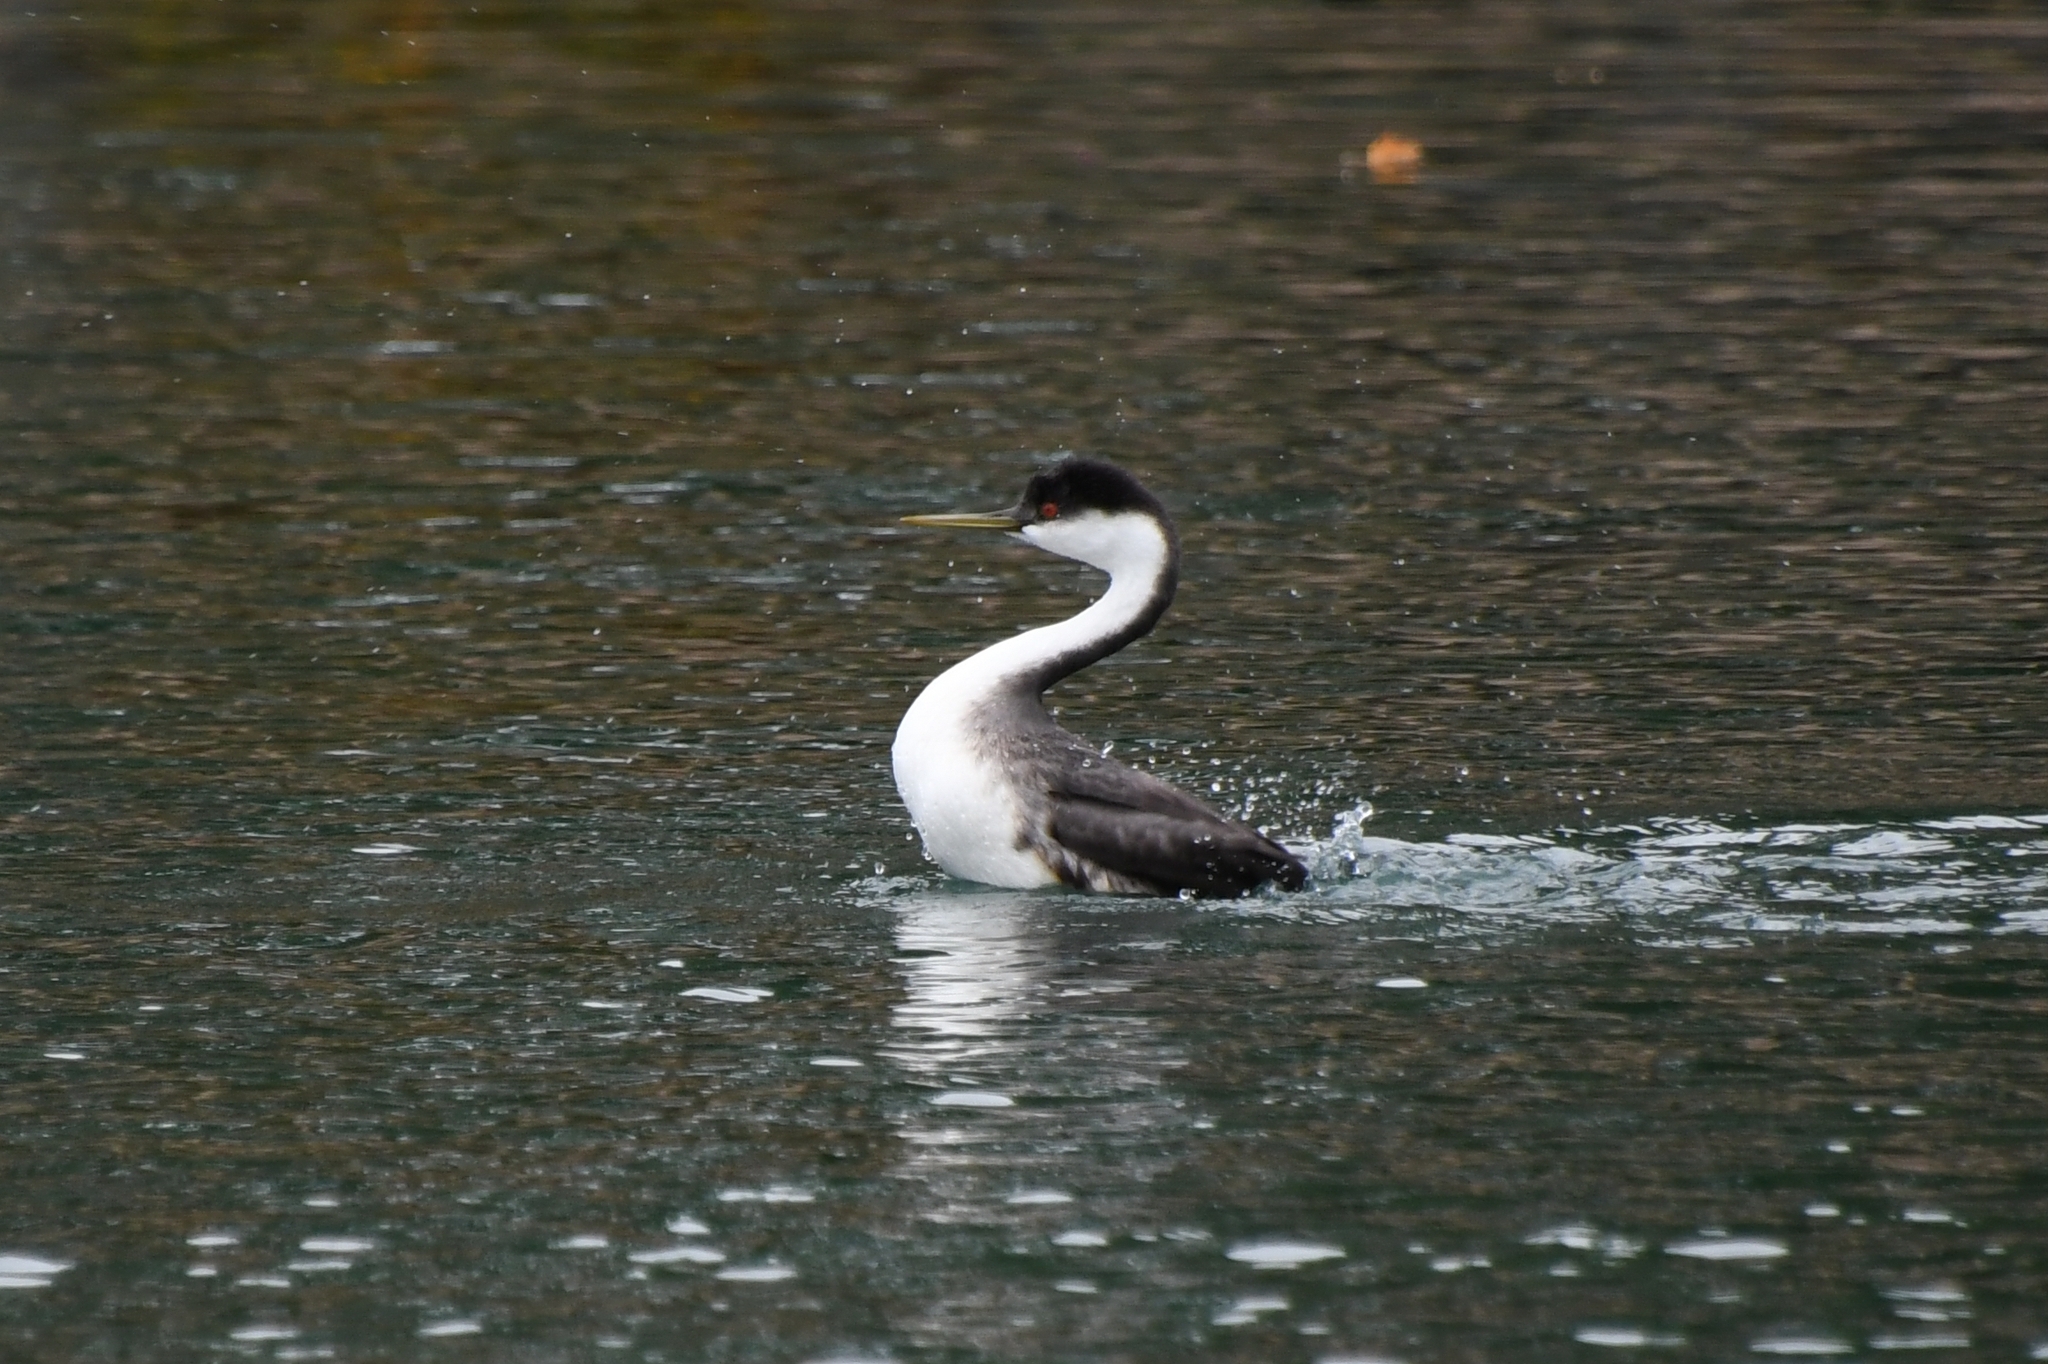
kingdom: Animalia
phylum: Chordata
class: Aves
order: Podicipediformes
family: Podicipedidae
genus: Aechmophorus
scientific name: Aechmophorus occidentalis
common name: Western grebe
